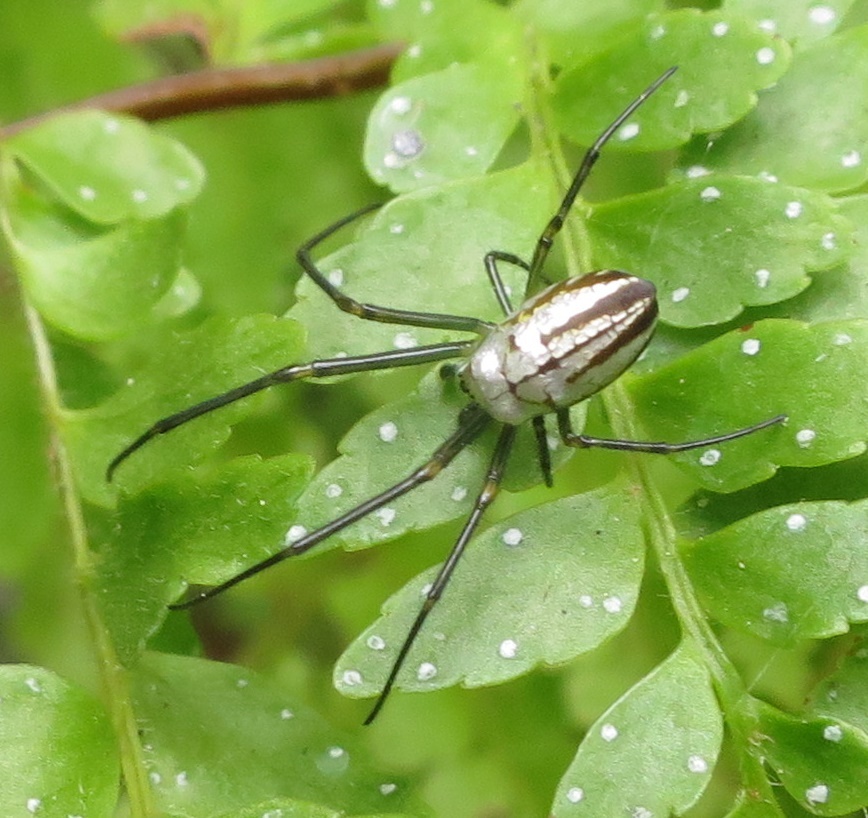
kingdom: Animalia
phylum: Arthropoda
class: Arachnida
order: Araneae
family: Tetragnathidae
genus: Leucauge
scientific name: Leucauge dromedaria
